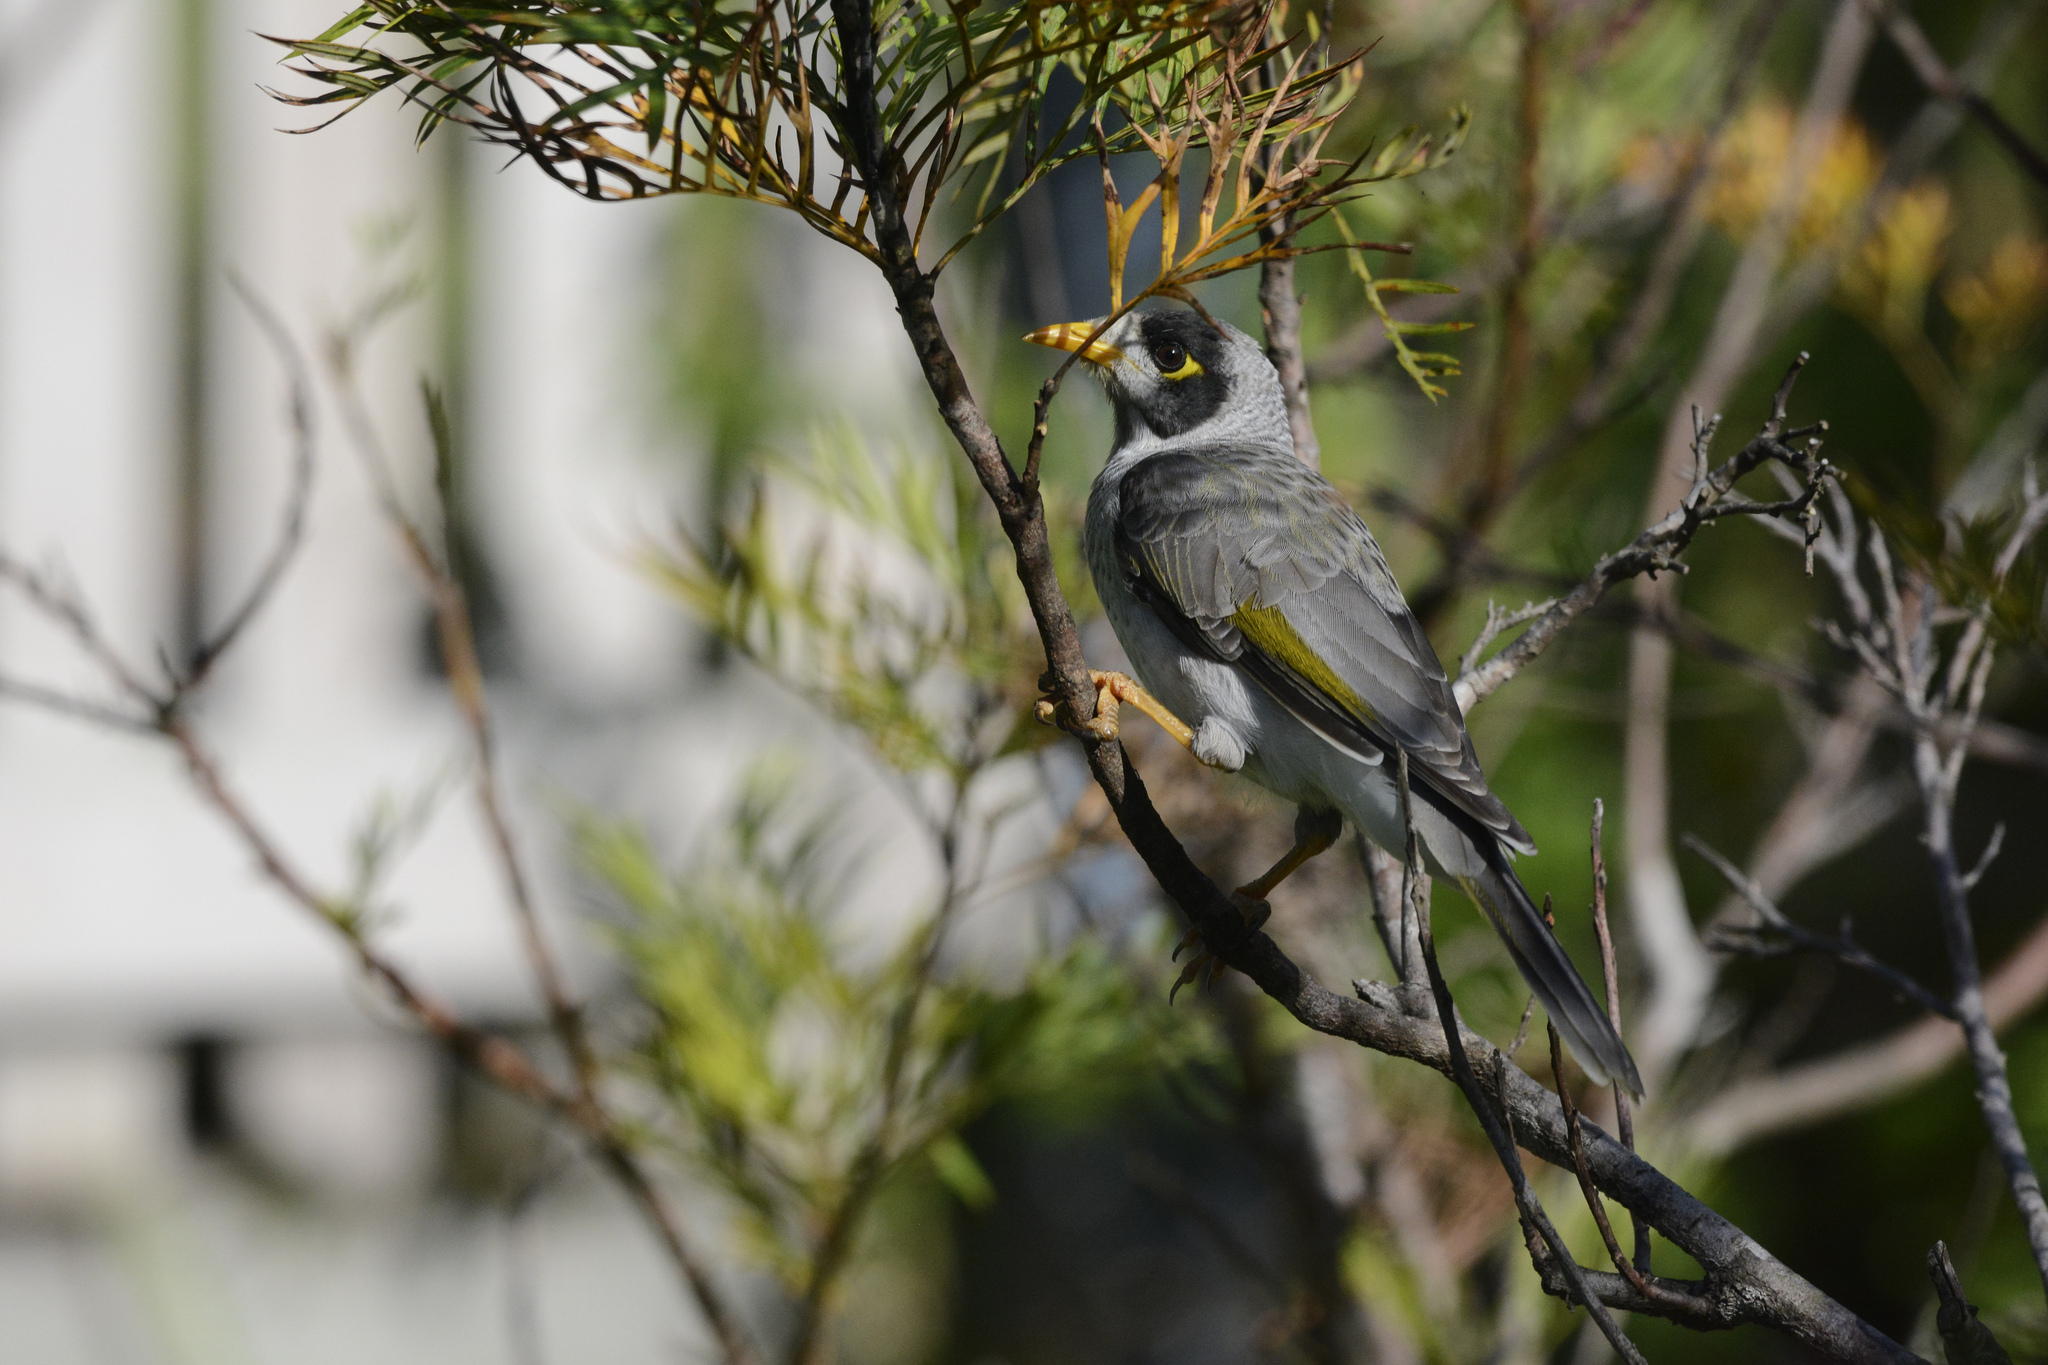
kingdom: Animalia
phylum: Chordata
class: Aves
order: Passeriformes
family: Meliphagidae
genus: Manorina
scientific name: Manorina melanocephala
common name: Noisy miner
